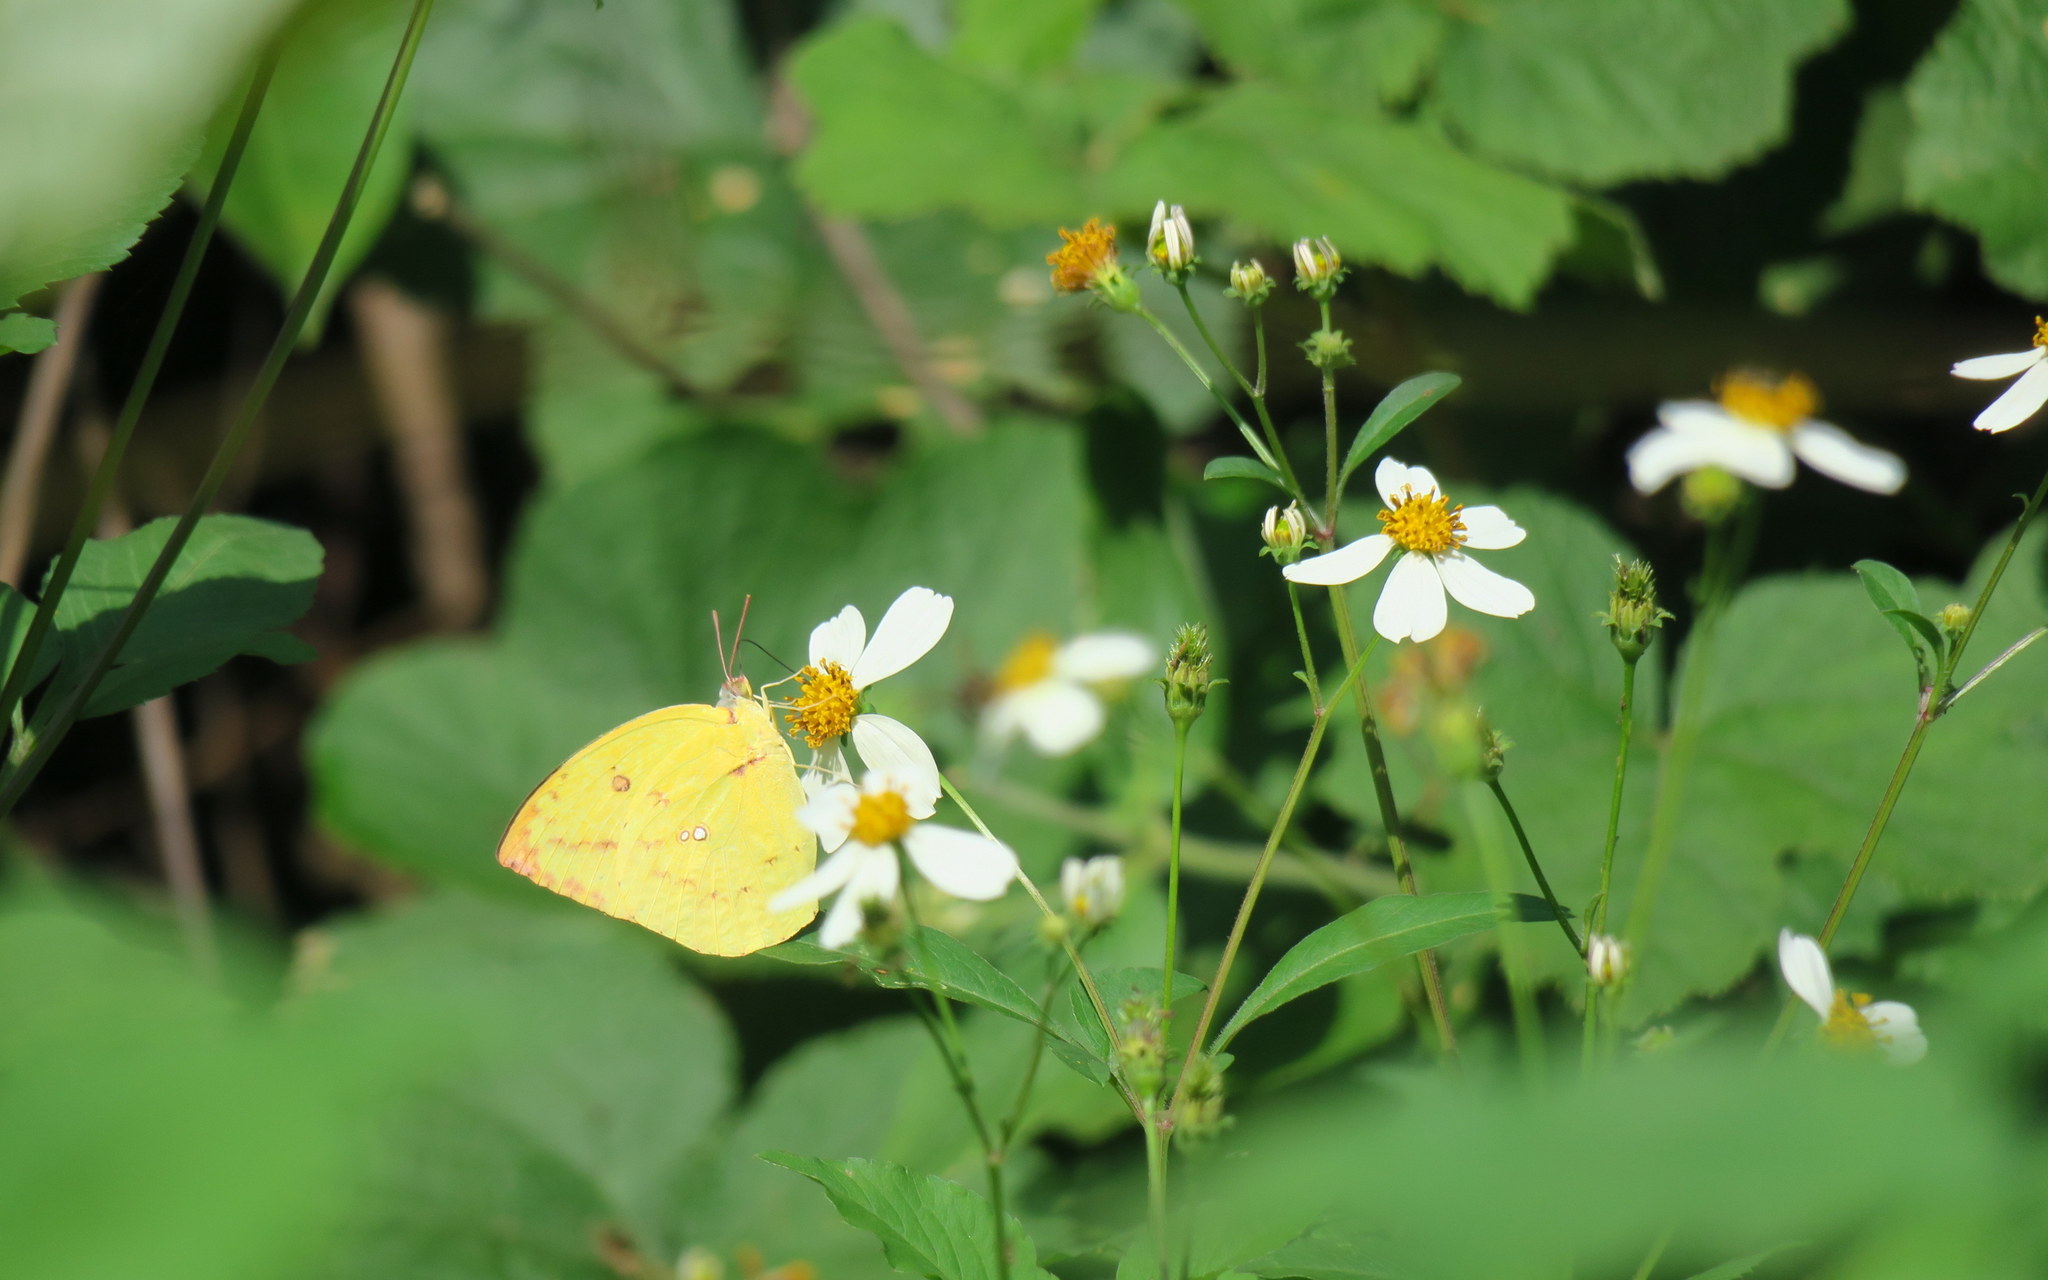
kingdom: Animalia
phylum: Arthropoda
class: Insecta
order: Lepidoptera
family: Pieridae
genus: Catopsilia
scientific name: Catopsilia pomona
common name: Common emigrant
